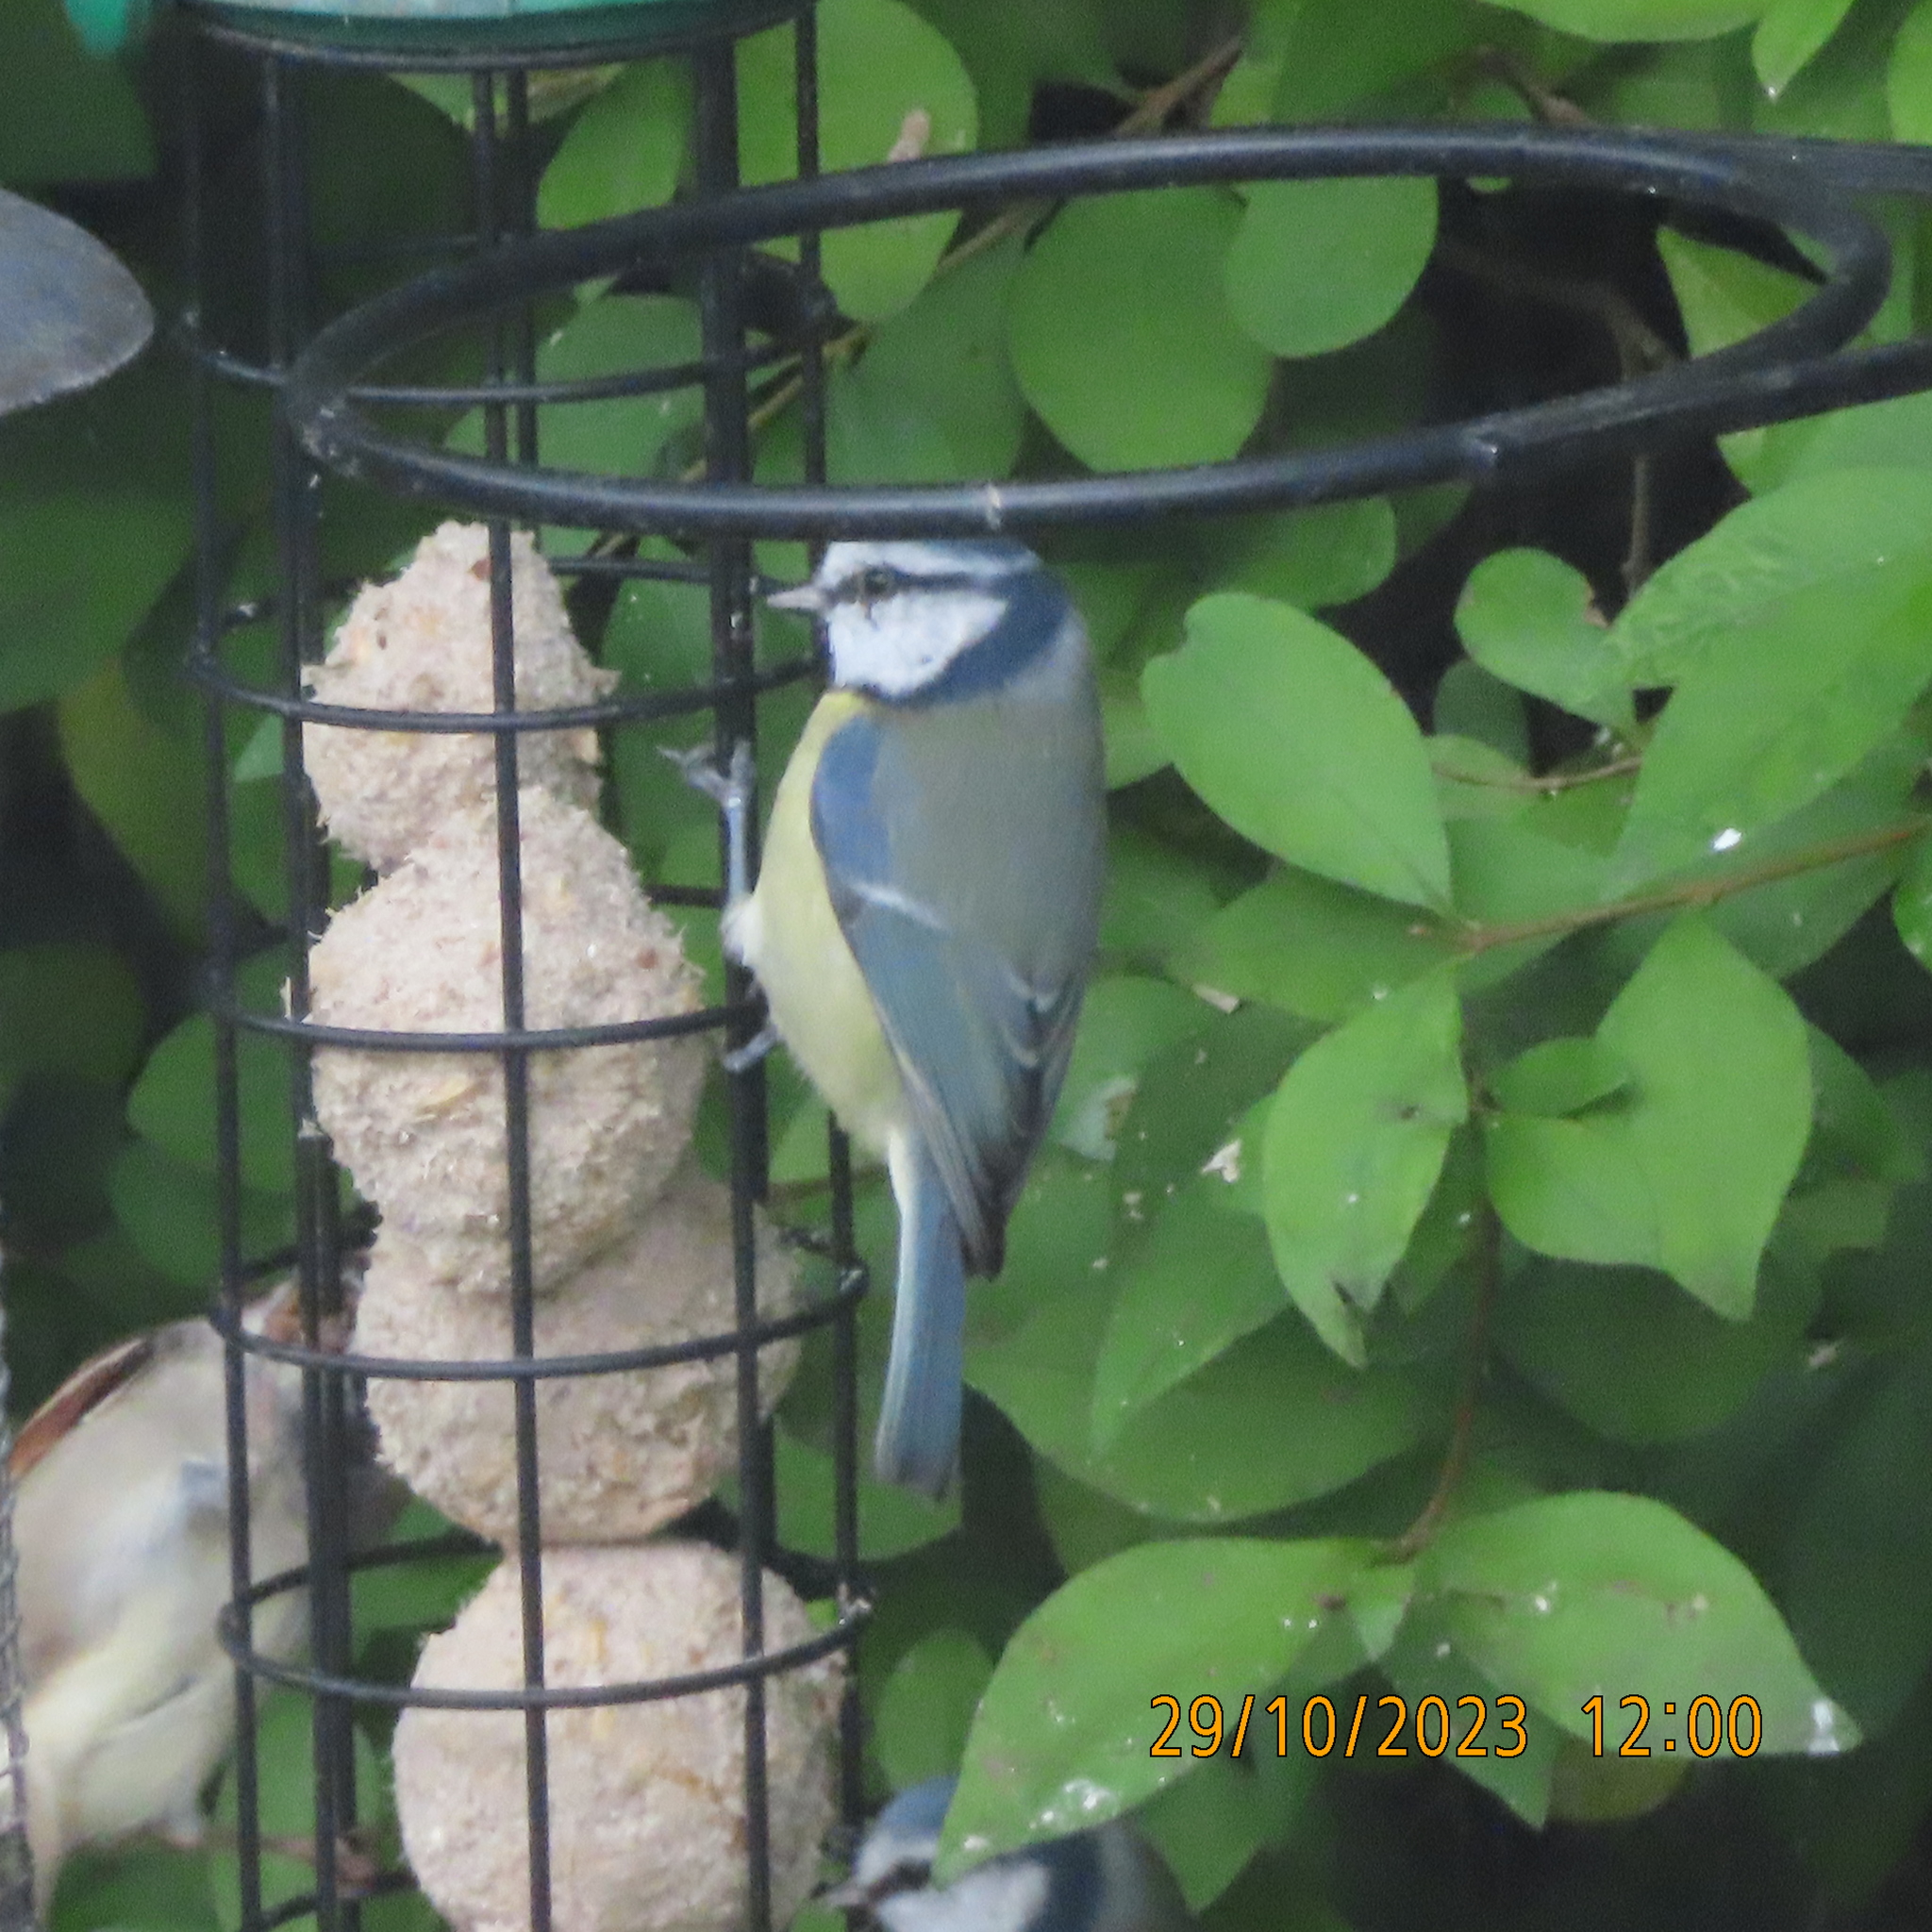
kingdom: Animalia
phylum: Chordata
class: Aves
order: Passeriformes
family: Paridae
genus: Cyanistes
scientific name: Cyanistes caeruleus
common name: Eurasian blue tit
